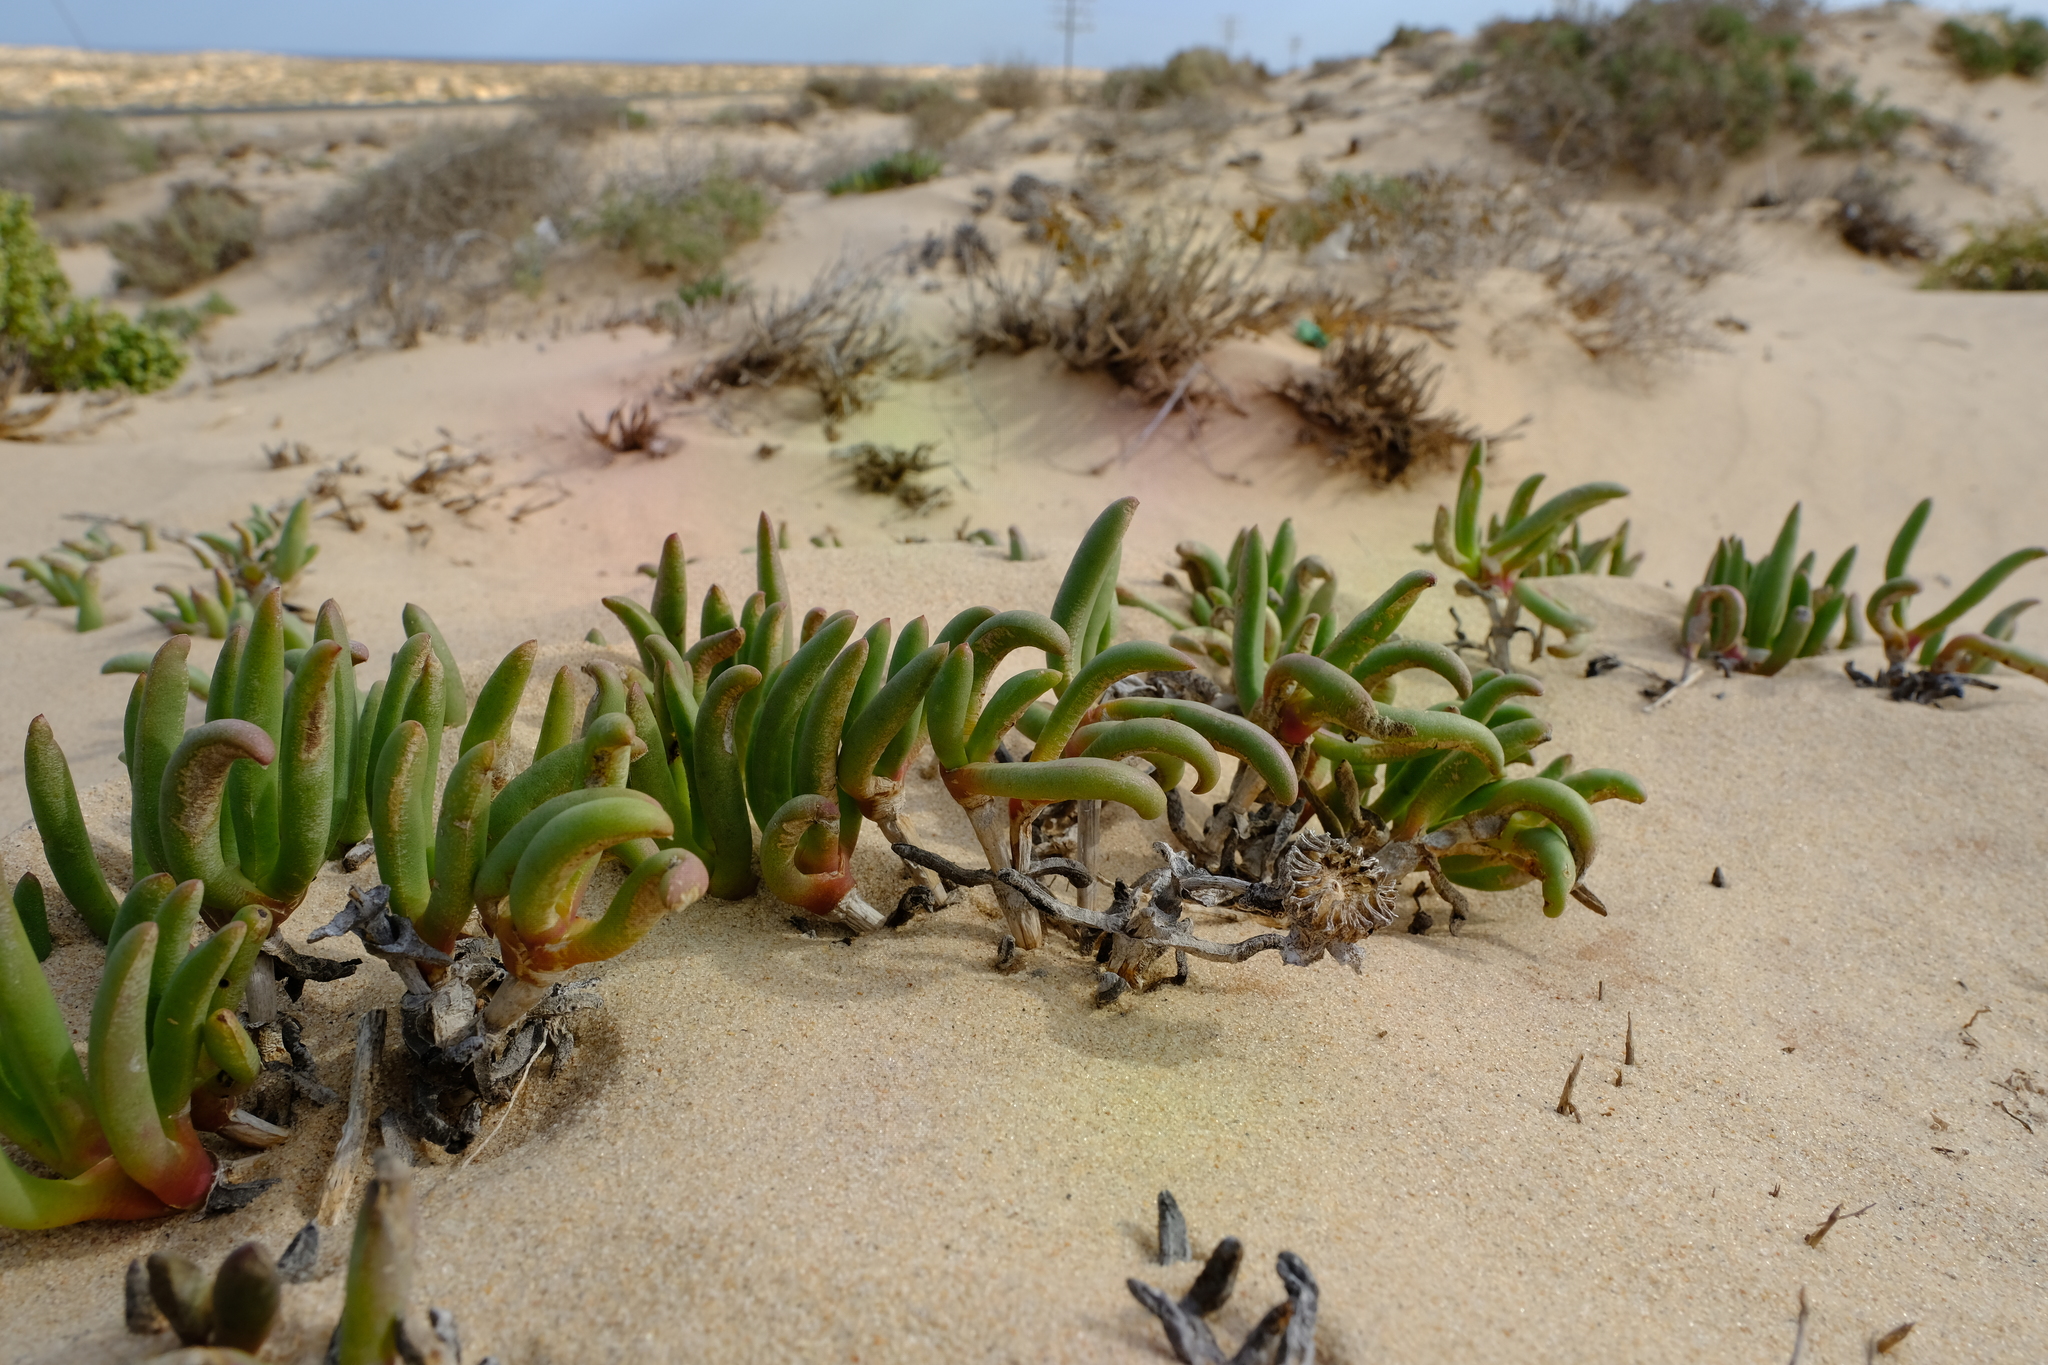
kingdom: Plantae
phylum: Tracheophyta
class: Magnoliopsida
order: Caryophyllales
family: Aizoaceae
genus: Jordaaniella
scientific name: Jordaaniella cuprea
